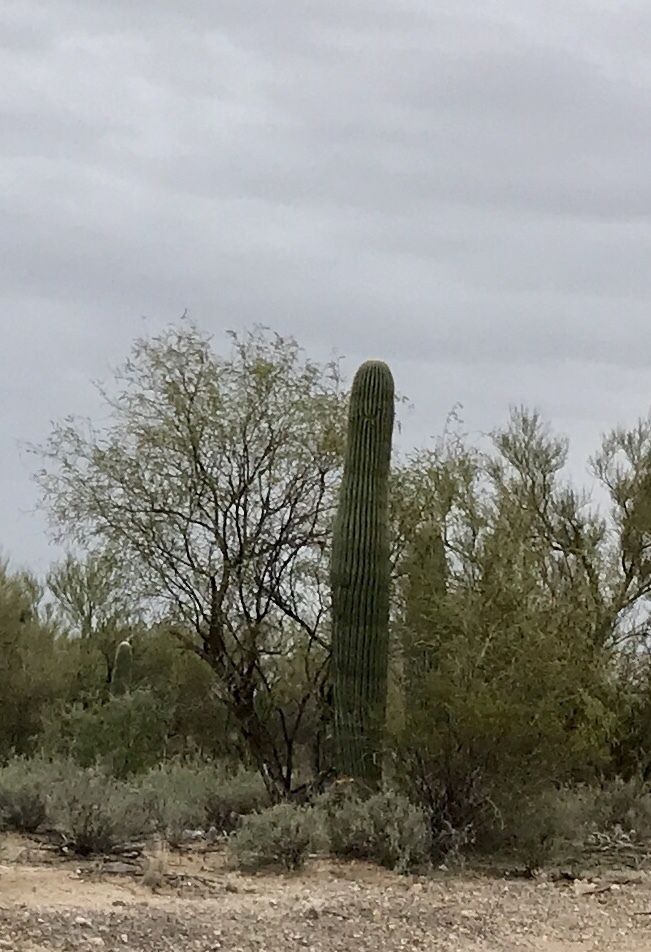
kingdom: Plantae
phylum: Tracheophyta
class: Magnoliopsida
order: Caryophyllales
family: Cactaceae
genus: Carnegiea
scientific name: Carnegiea gigantea
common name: Saguaro
